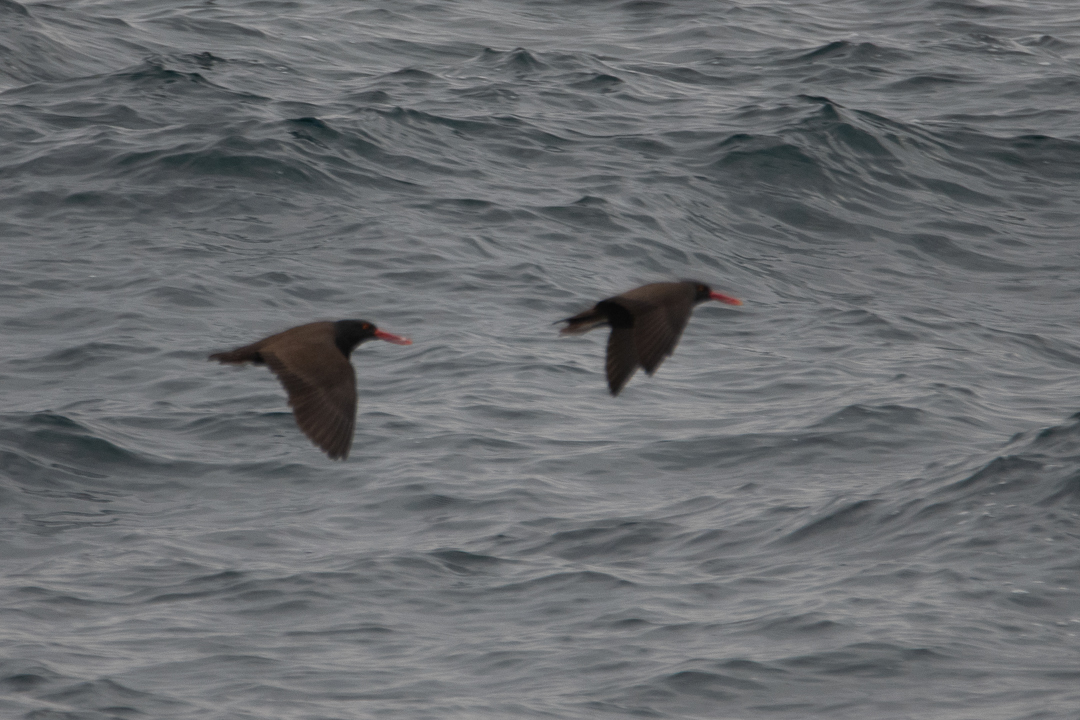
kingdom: Animalia
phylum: Chordata
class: Aves
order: Charadriiformes
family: Haematopodidae
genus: Haematopus
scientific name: Haematopus ater
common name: Blackish oystercatcher
